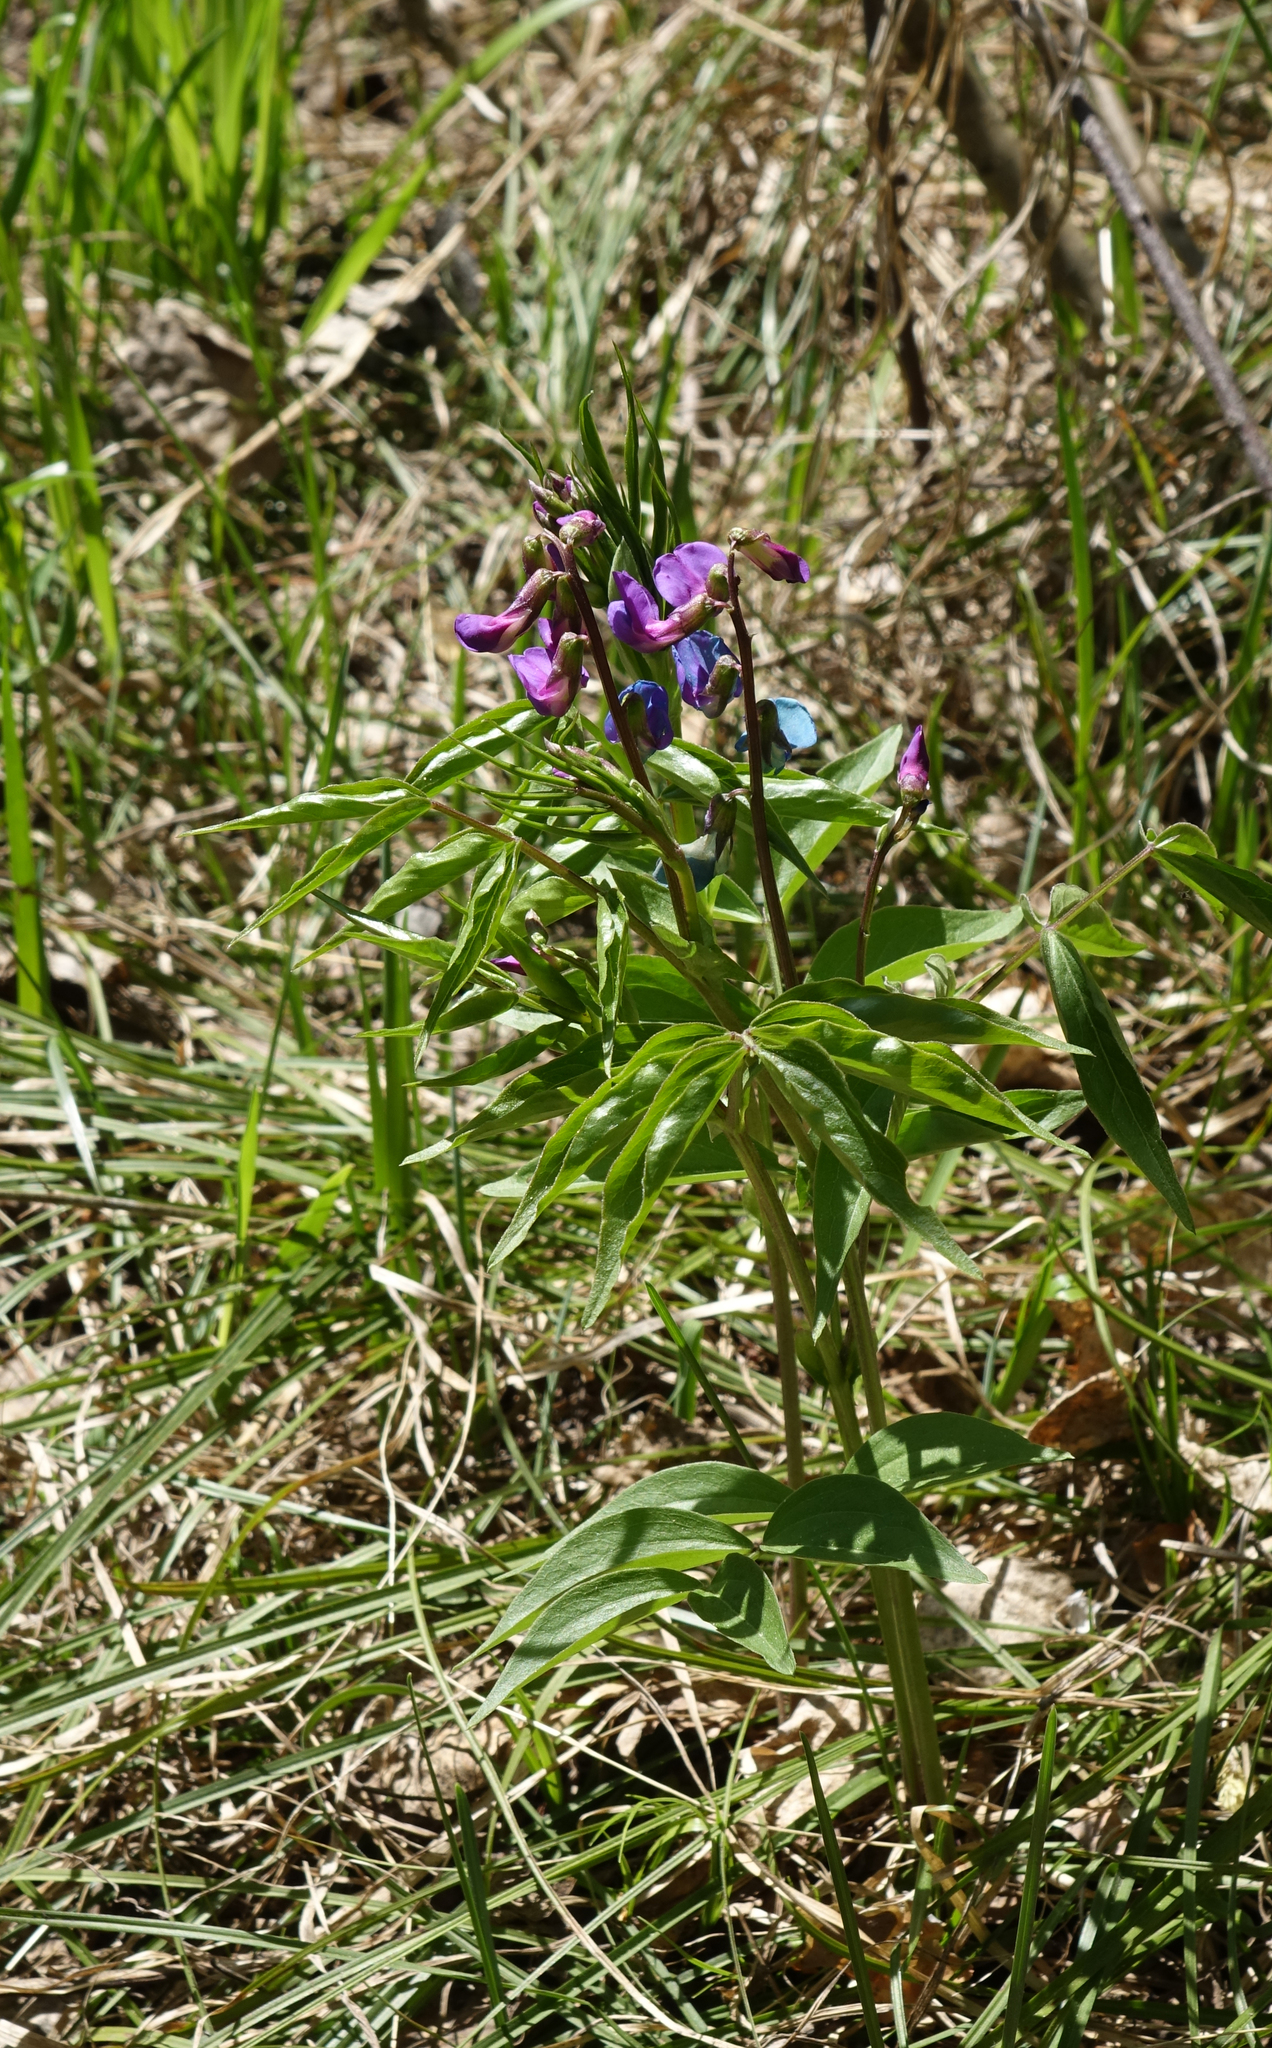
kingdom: Plantae
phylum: Tracheophyta
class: Magnoliopsida
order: Fabales
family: Fabaceae
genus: Lathyrus
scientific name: Lathyrus vernus
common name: Spring pea
